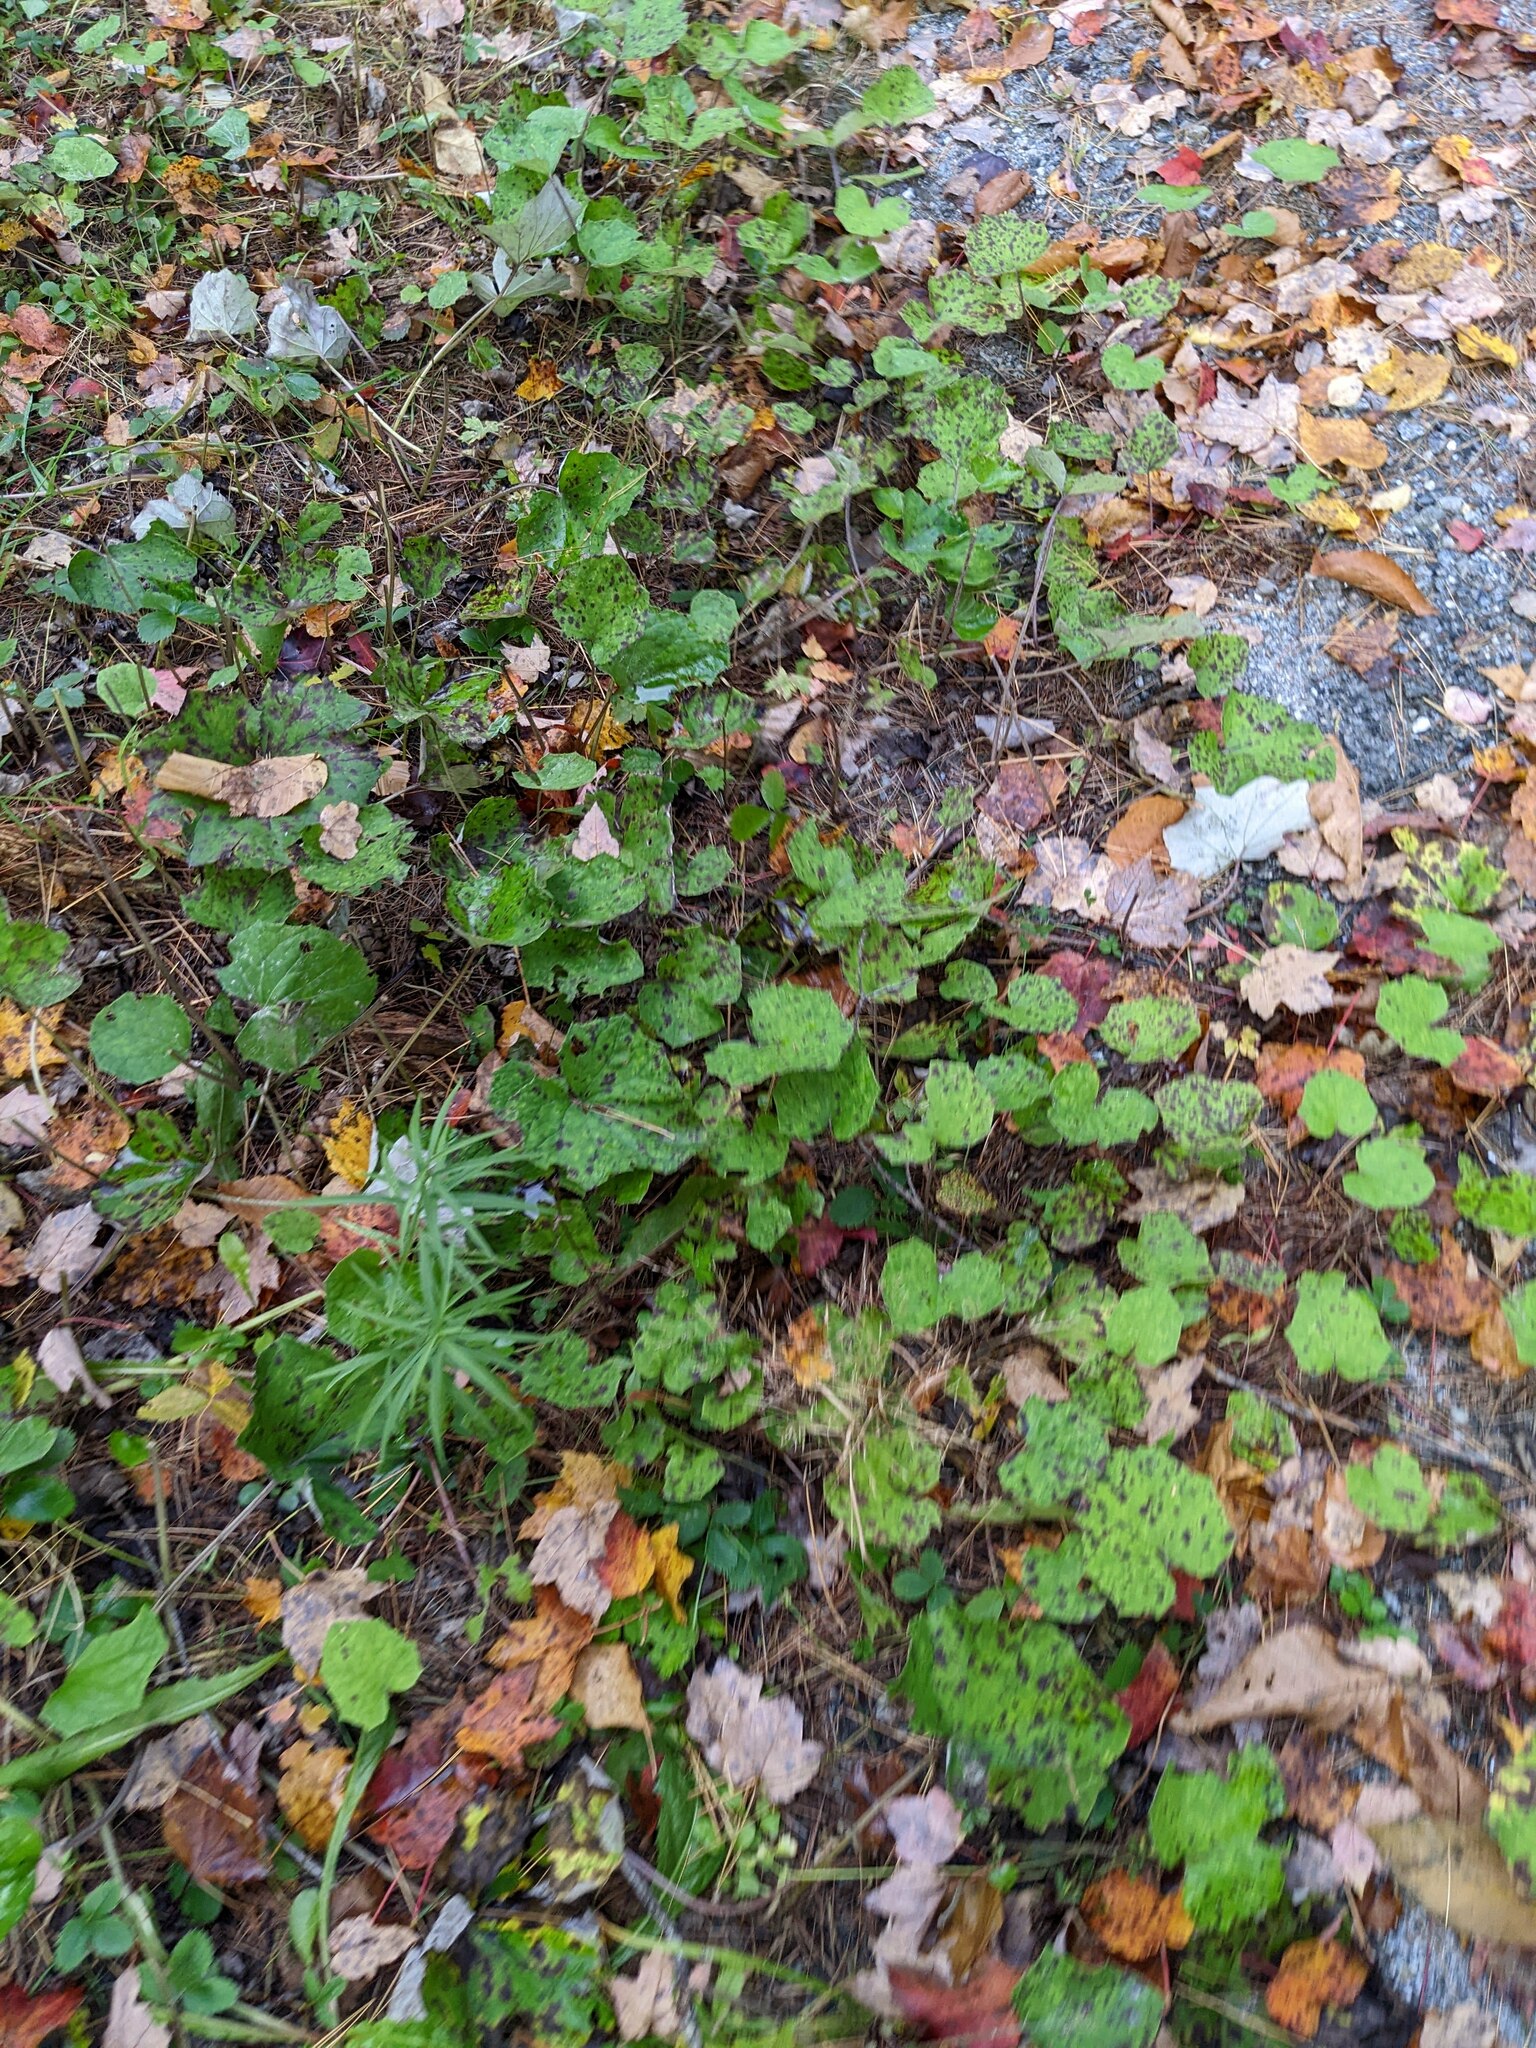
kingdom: Plantae
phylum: Tracheophyta
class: Magnoliopsida
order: Asterales
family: Asteraceae
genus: Tussilago
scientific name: Tussilago farfara
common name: Coltsfoot
